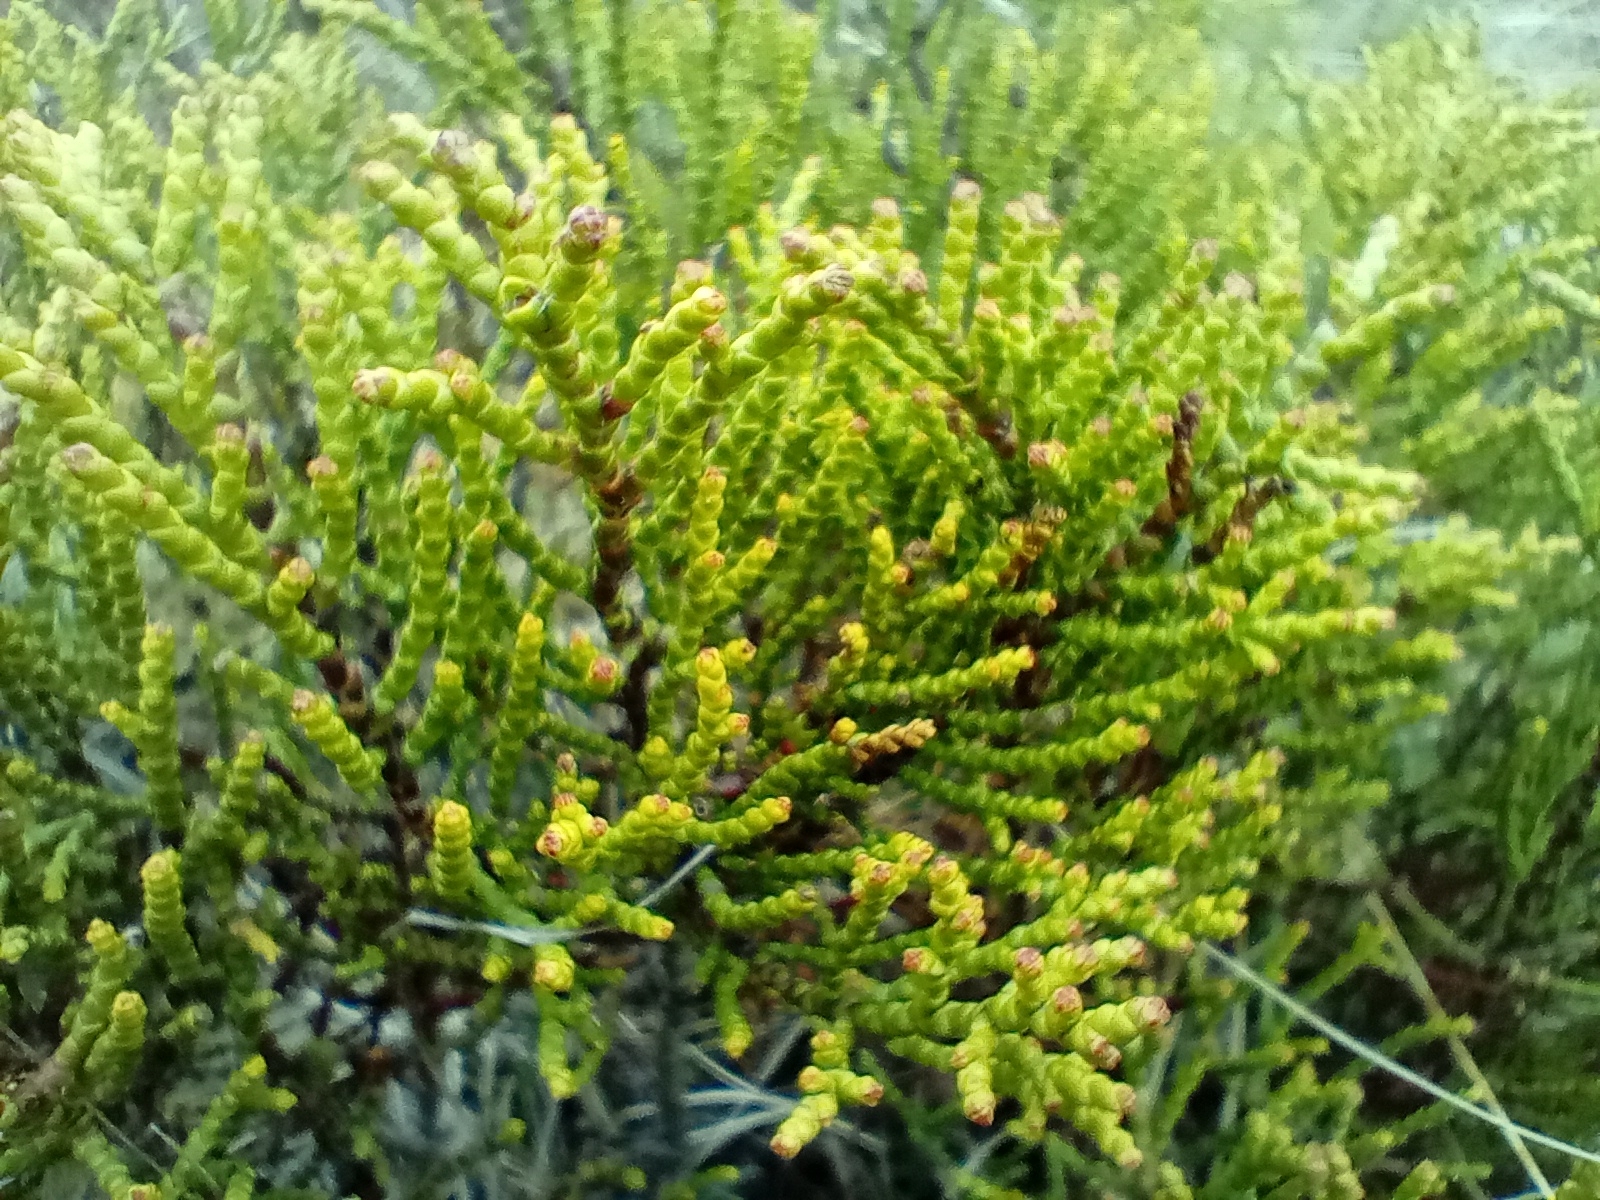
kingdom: Plantae
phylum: Tracheophyta
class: Magnoliopsida
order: Lamiales
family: Plantaginaceae
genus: Veronica
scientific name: Veronica propinqua
